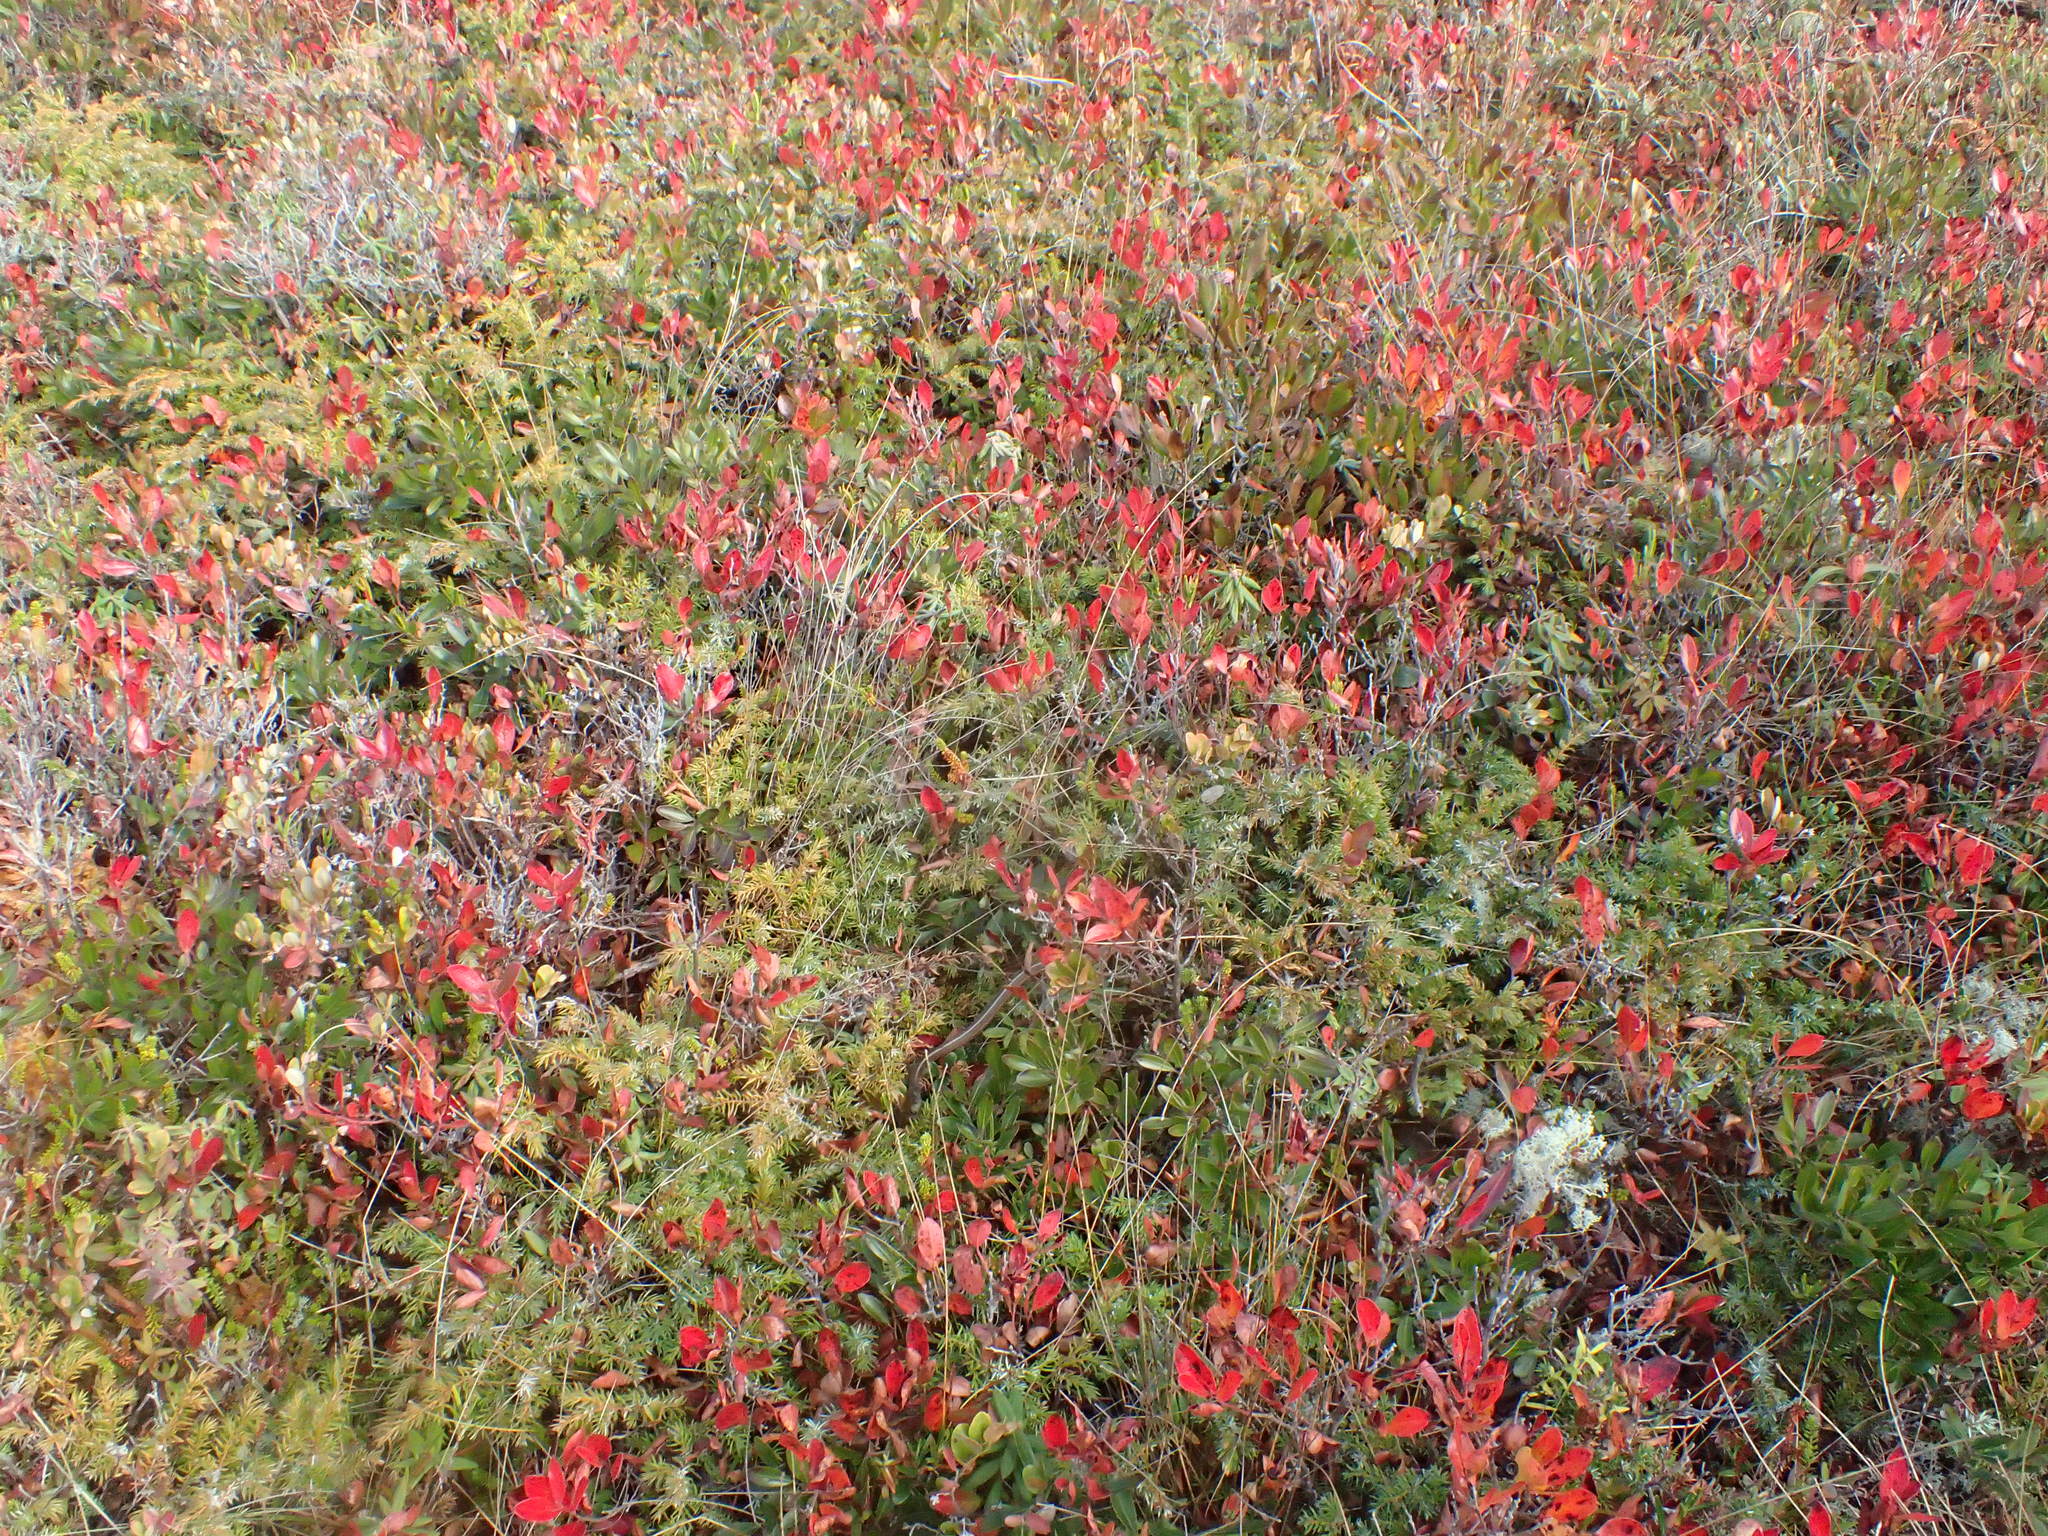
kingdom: Animalia
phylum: Chordata
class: Squamata
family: Colubridae
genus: Thamnophis
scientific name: Thamnophis sirtalis
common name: Common garter snake
